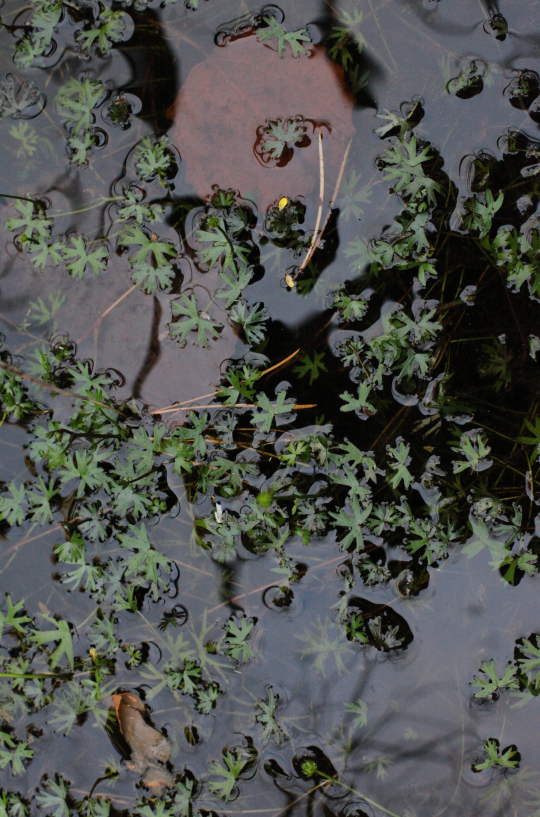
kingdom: Plantae
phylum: Tracheophyta
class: Magnoliopsida
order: Ranunculales
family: Ranunculaceae
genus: Ranunculus
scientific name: Ranunculus gmelinii
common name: Gmelin's buttercup
